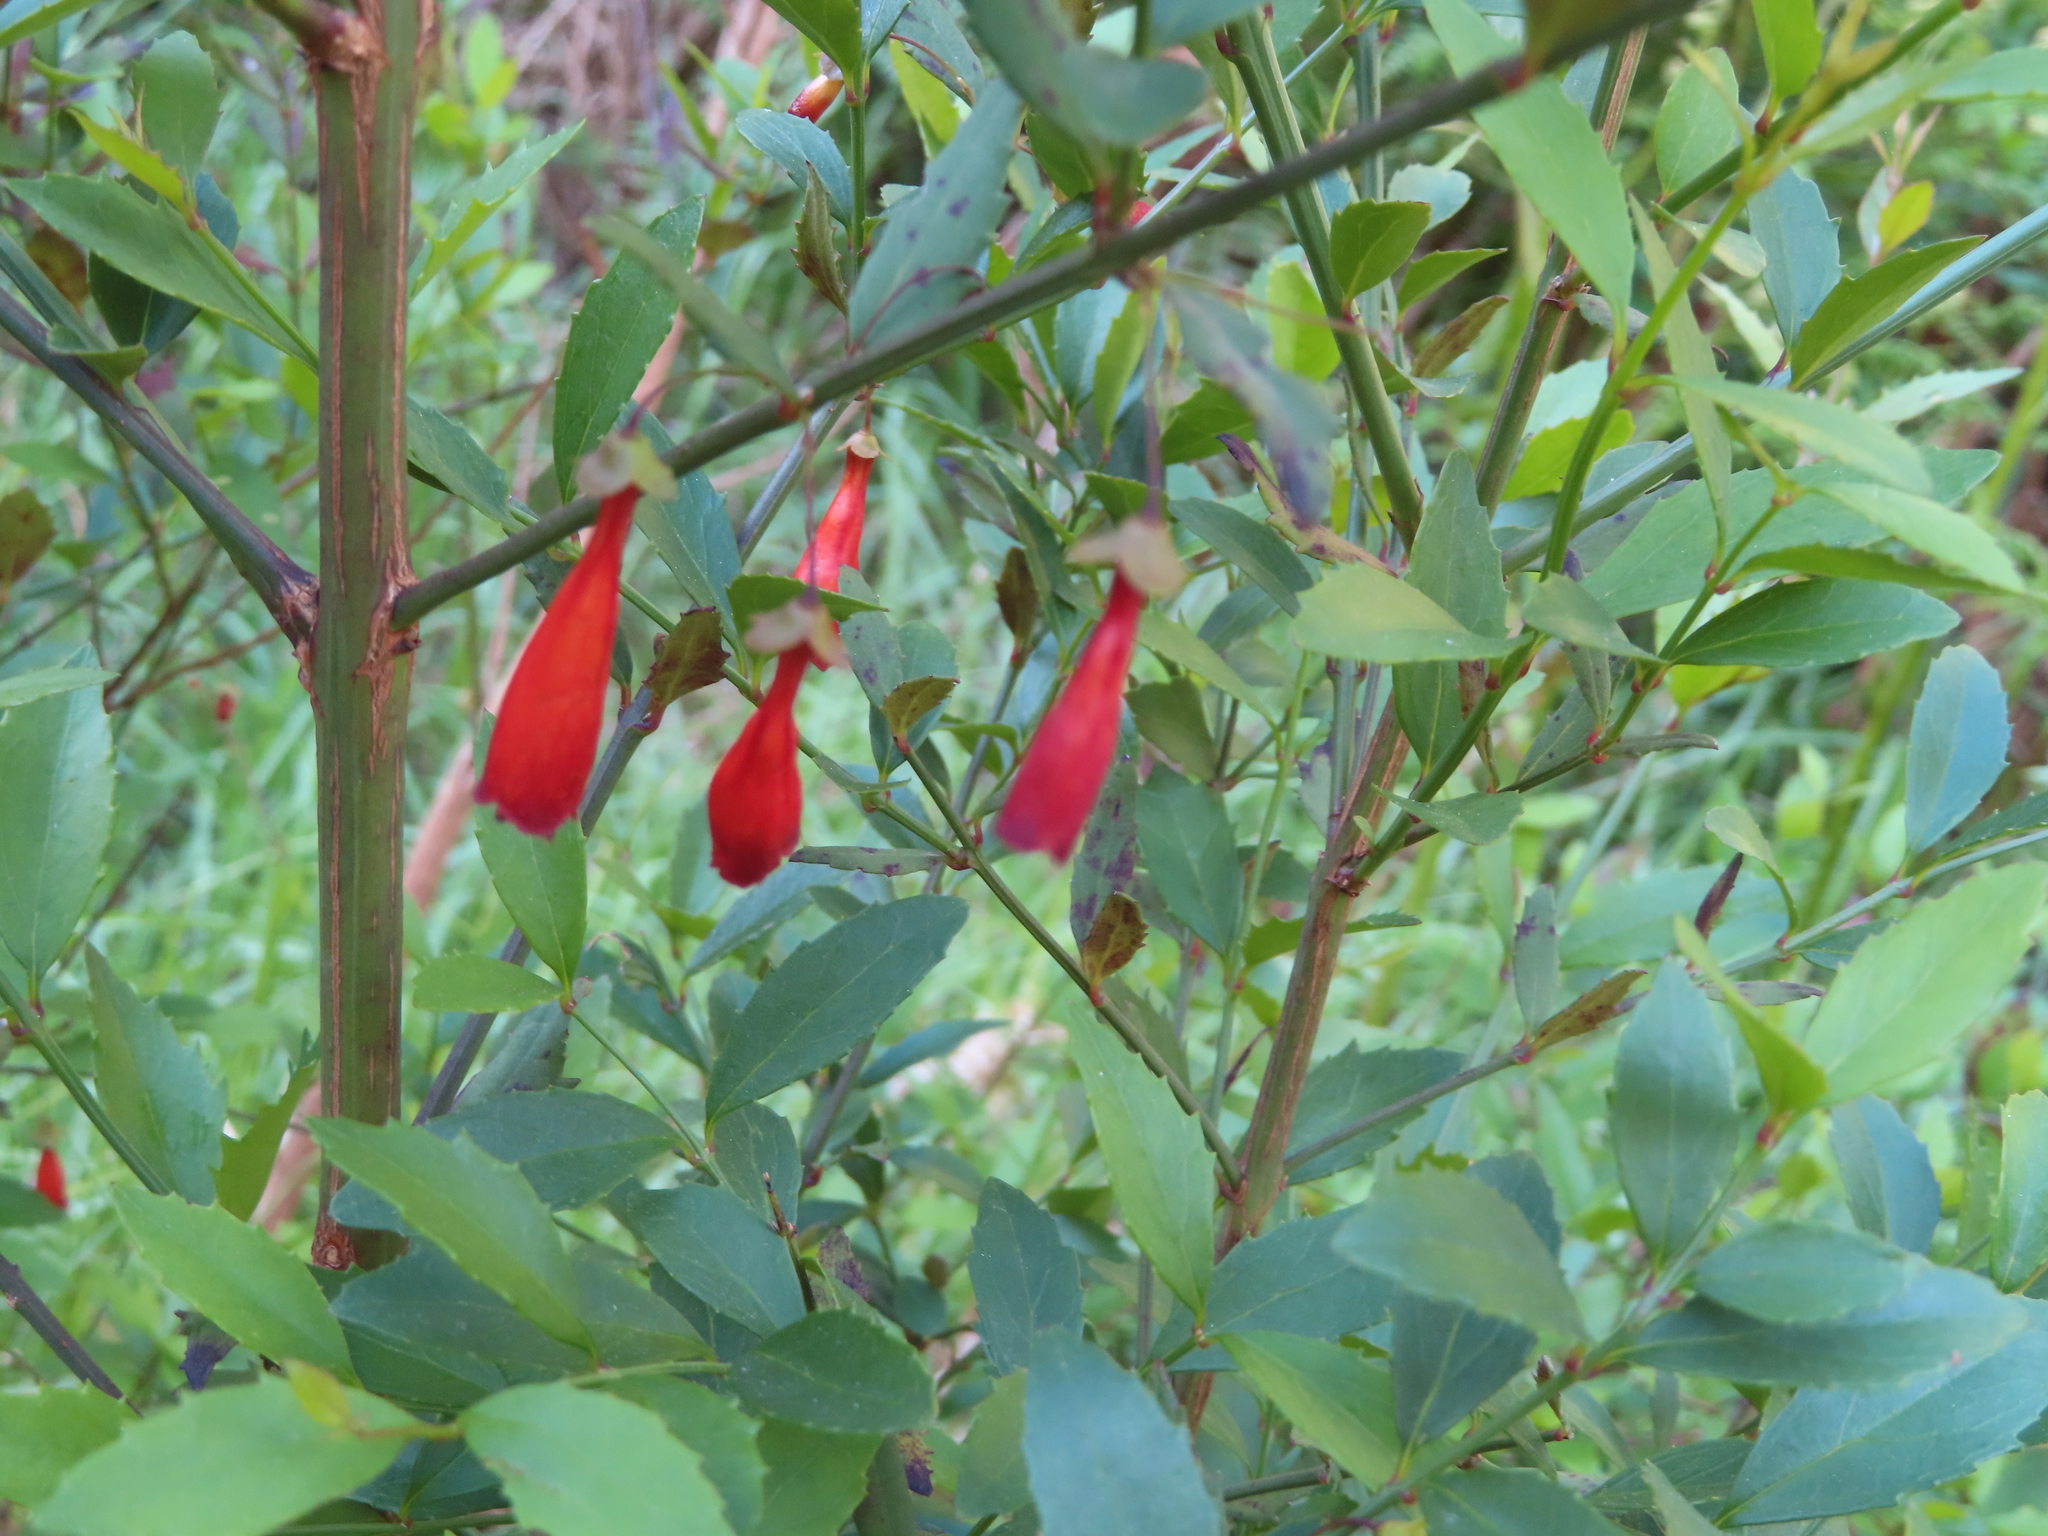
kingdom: Plantae
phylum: Tracheophyta
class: Magnoliopsida
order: Lamiales
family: Stilbaceae
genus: Halleria
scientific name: Halleria lucida
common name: Tree fuschia
